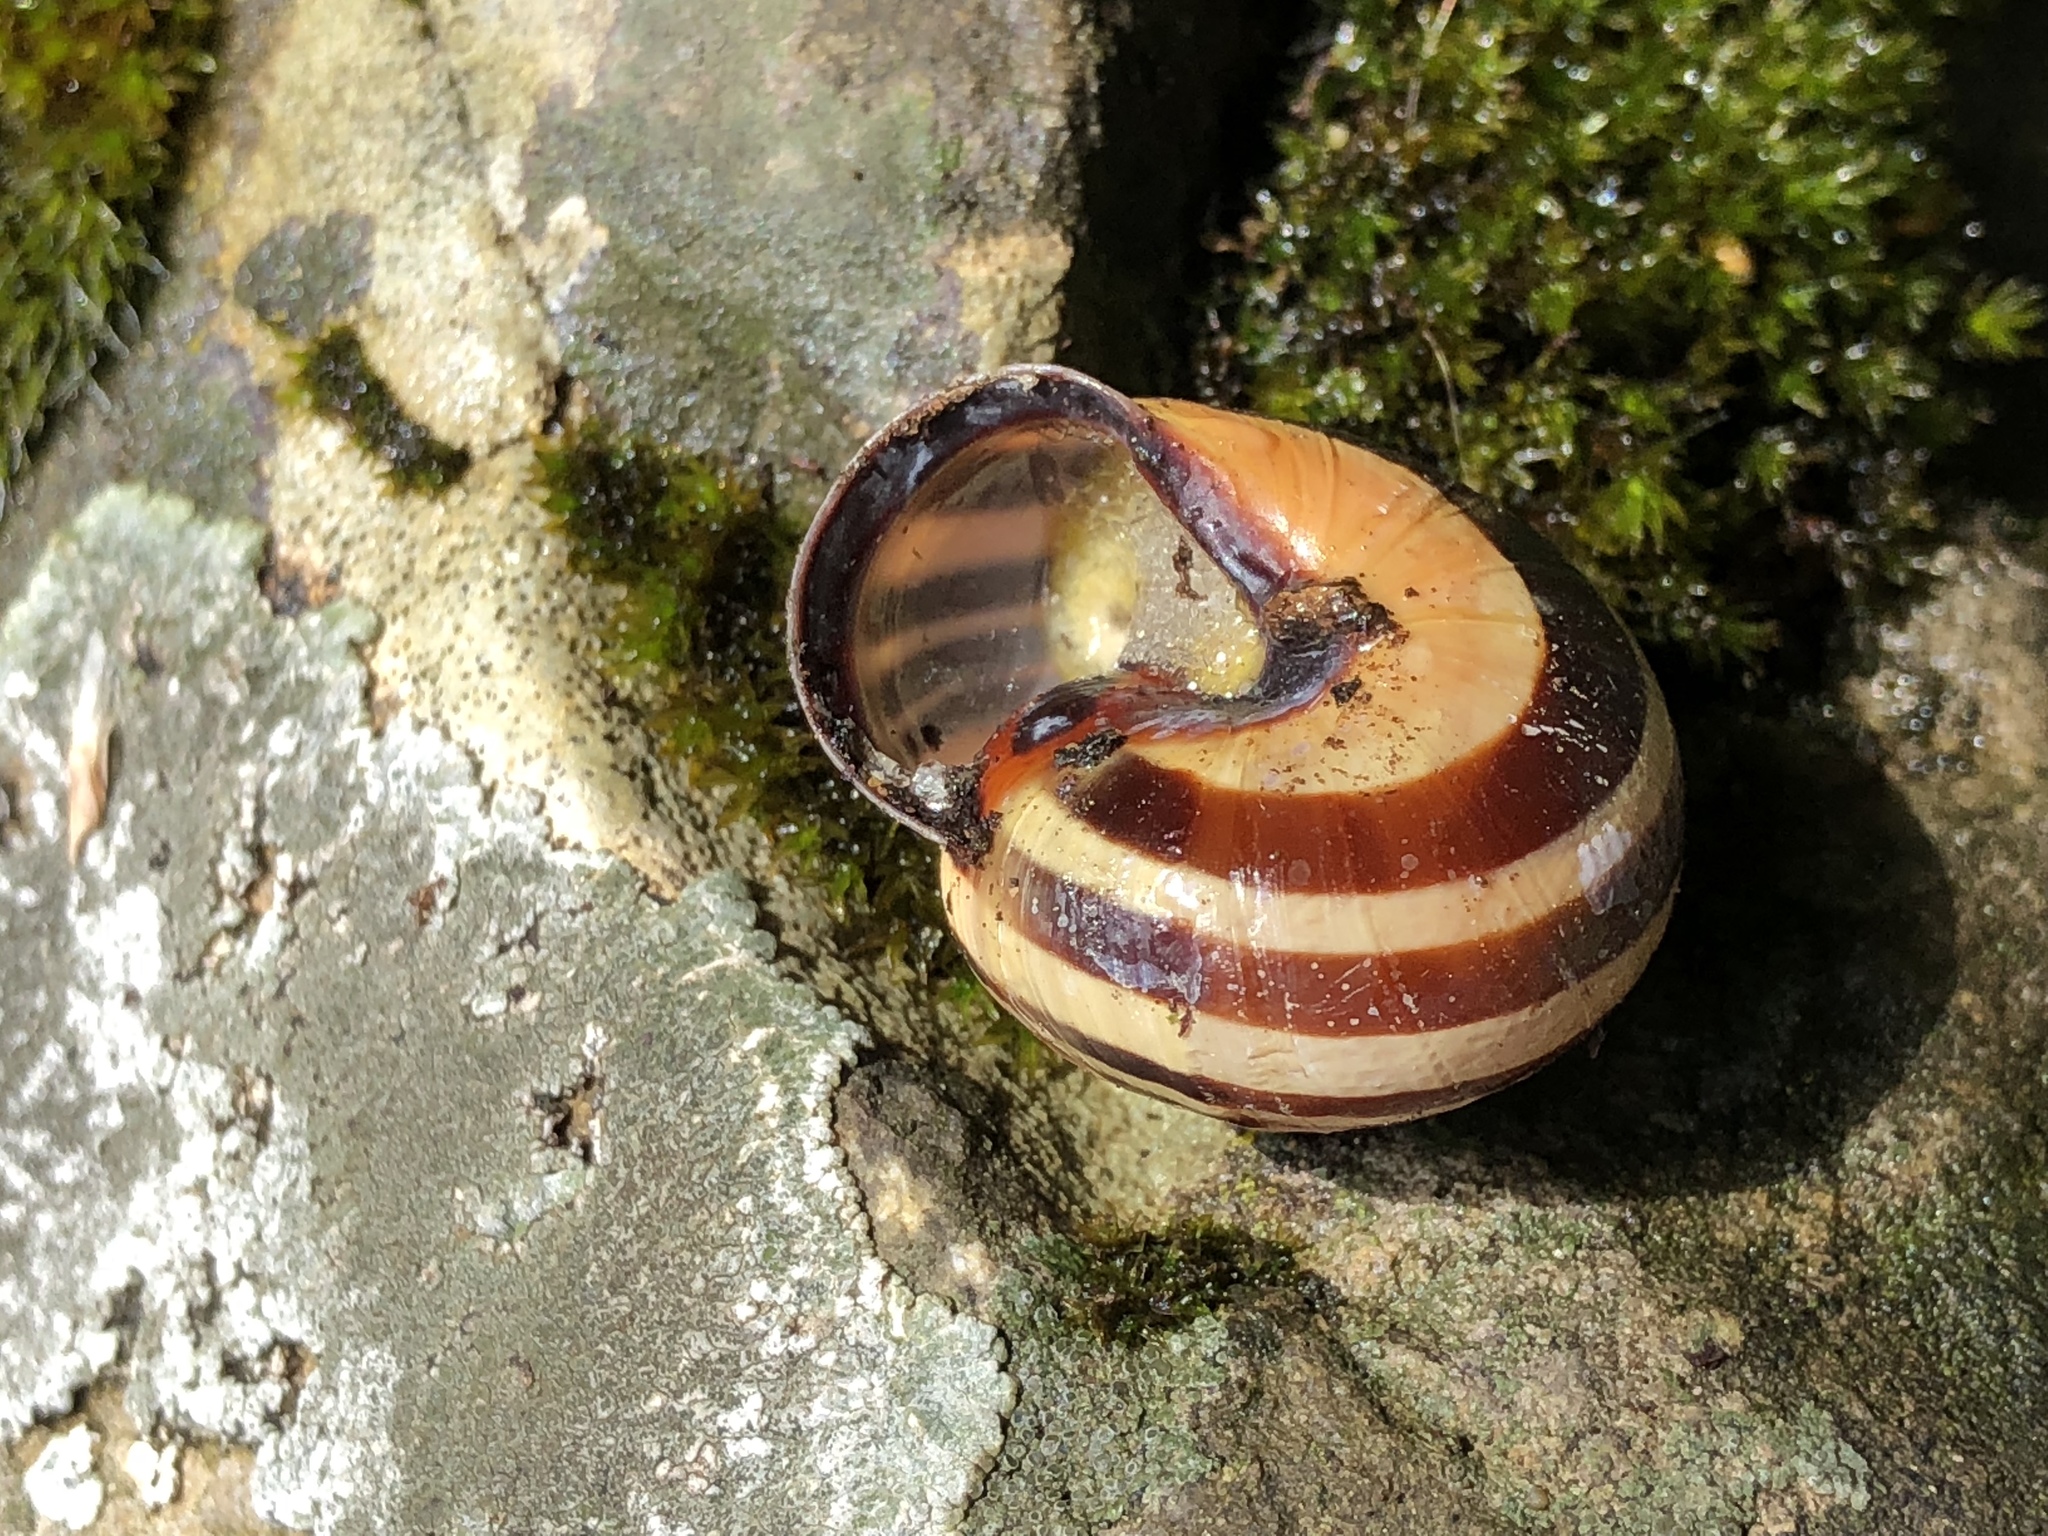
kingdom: Animalia
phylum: Mollusca
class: Gastropoda
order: Stylommatophora
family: Helicidae
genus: Cepaea
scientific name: Cepaea nemoralis
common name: Grovesnail
